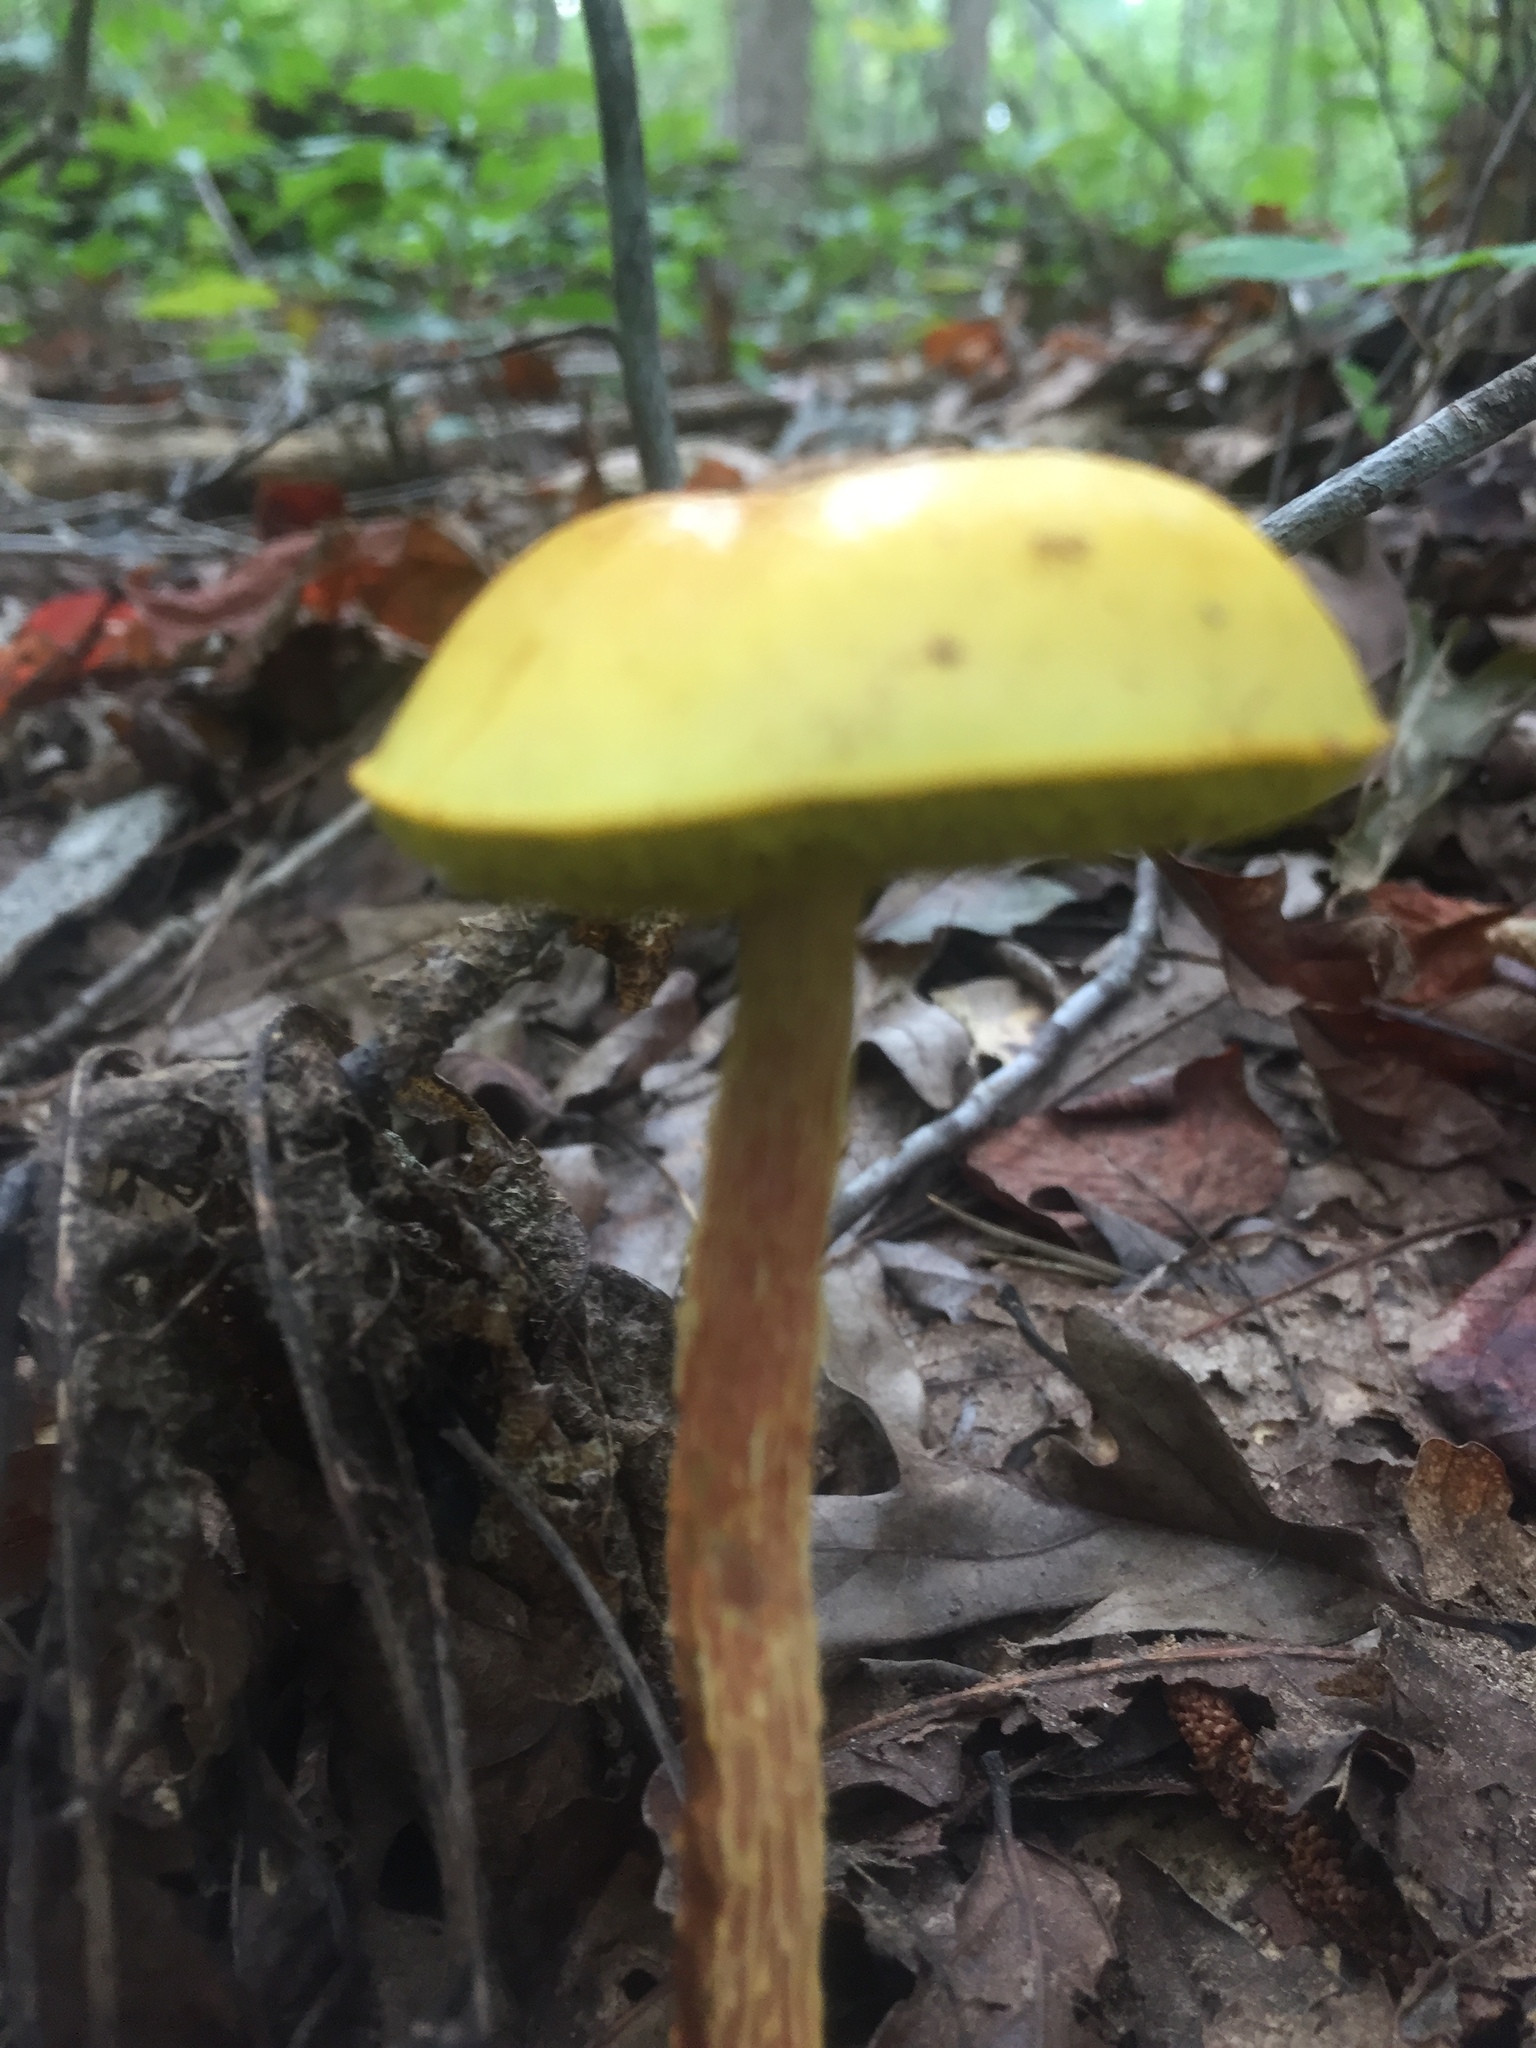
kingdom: Fungi
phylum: Basidiomycota
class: Agaricomycetes
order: Boletales
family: Boletaceae
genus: Aureoboletus
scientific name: Aureoboletus betula
